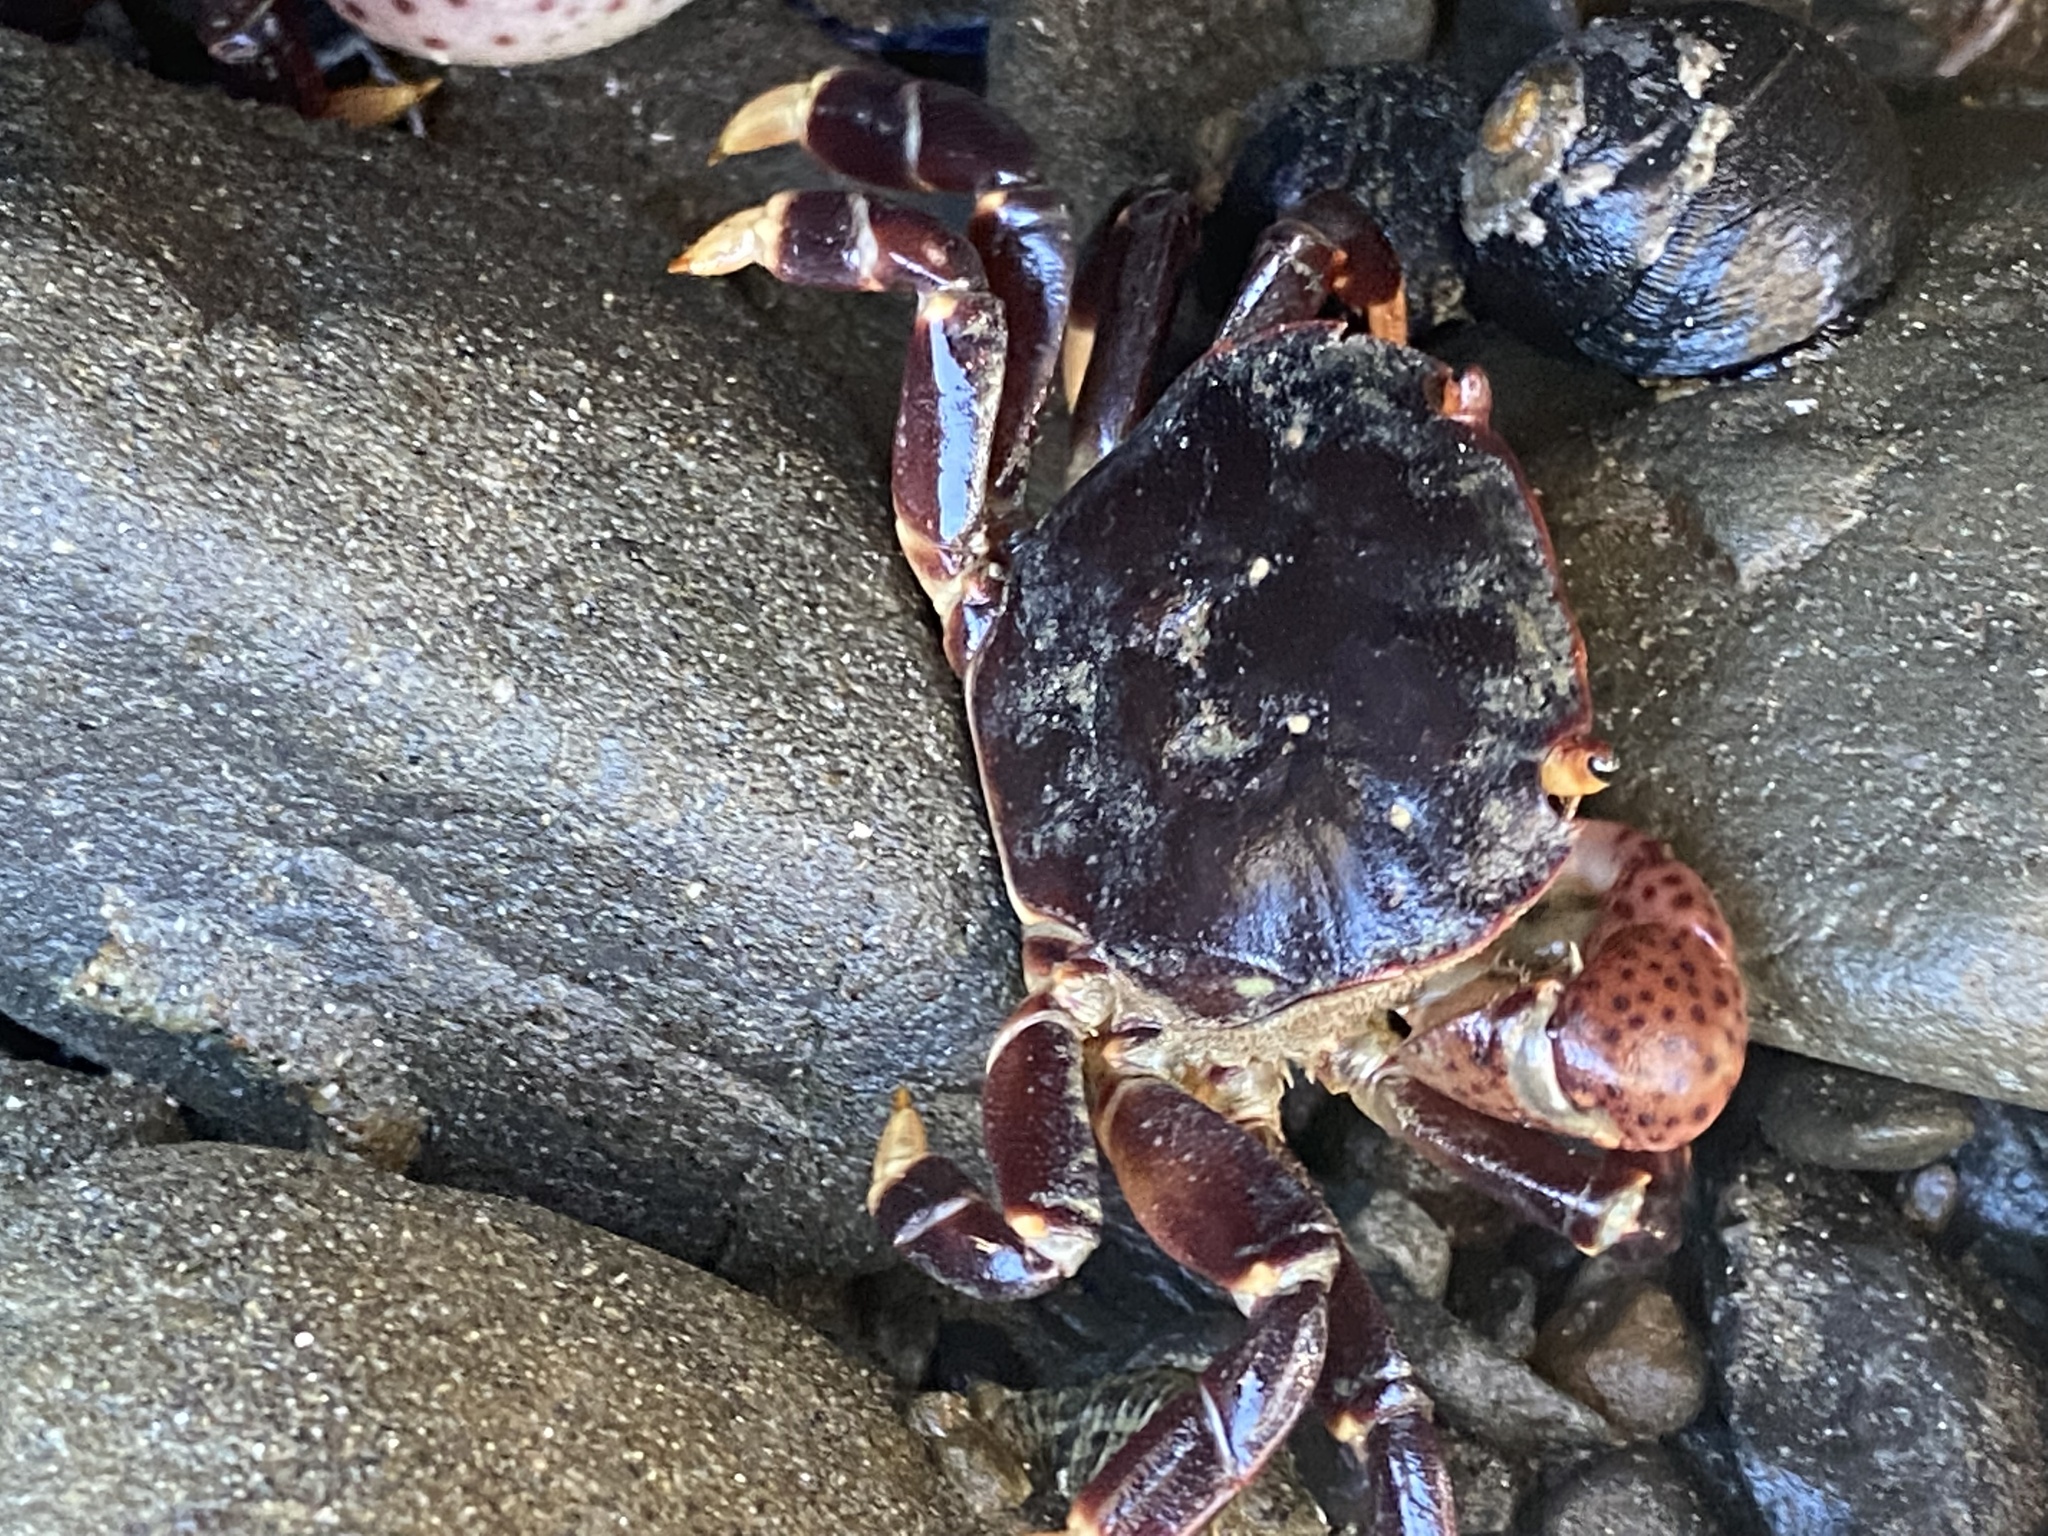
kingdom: Animalia
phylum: Arthropoda
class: Malacostraca
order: Decapoda
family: Varunidae
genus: Hemigrapsus
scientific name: Hemigrapsus nudus
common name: Purple shore crab
